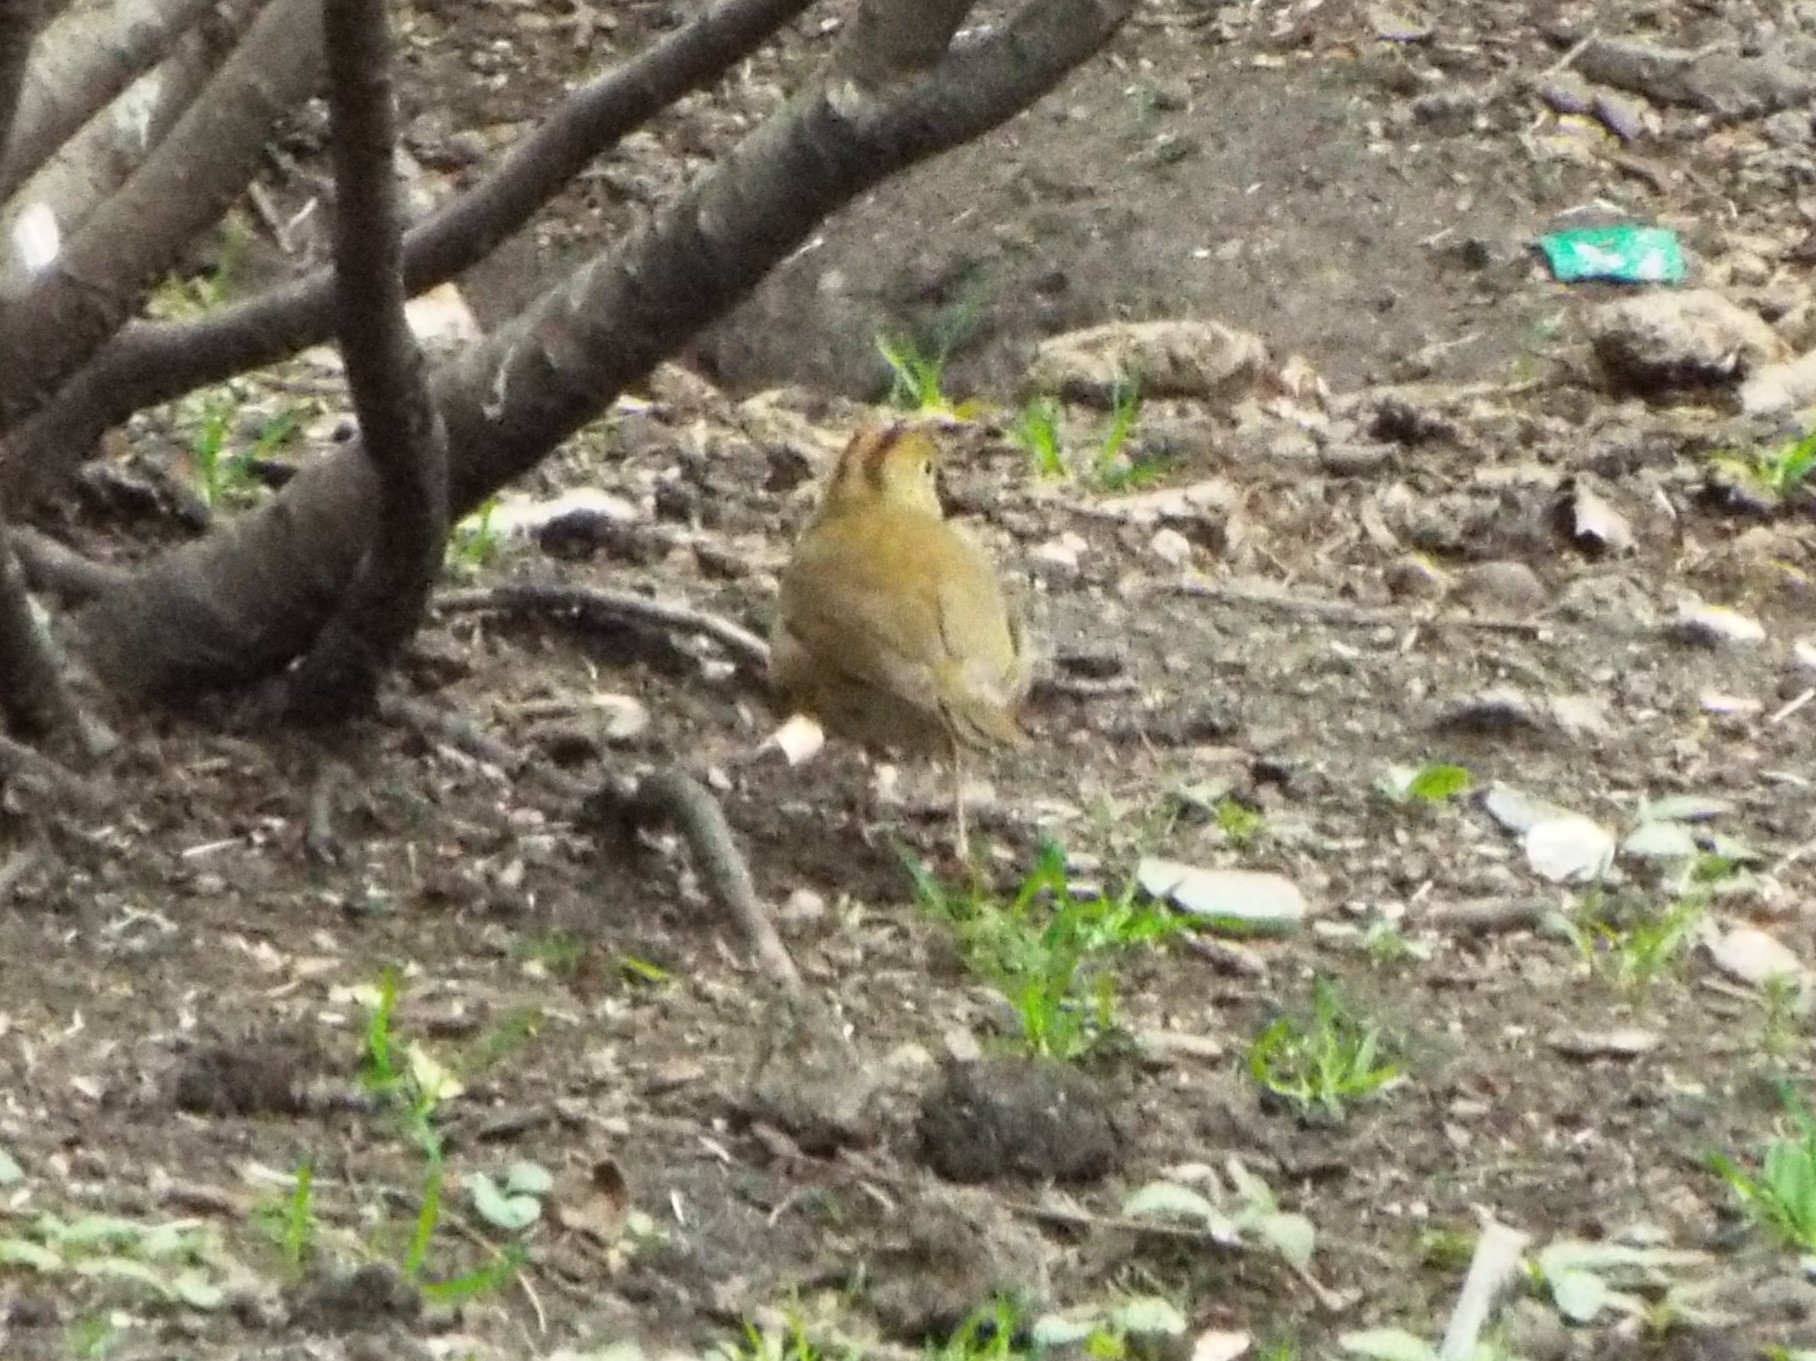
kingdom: Animalia
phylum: Chordata
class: Aves
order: Passeriformes
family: Parulidae
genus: Seiurus
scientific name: Seiurus aurocapilla
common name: Ovenbird
